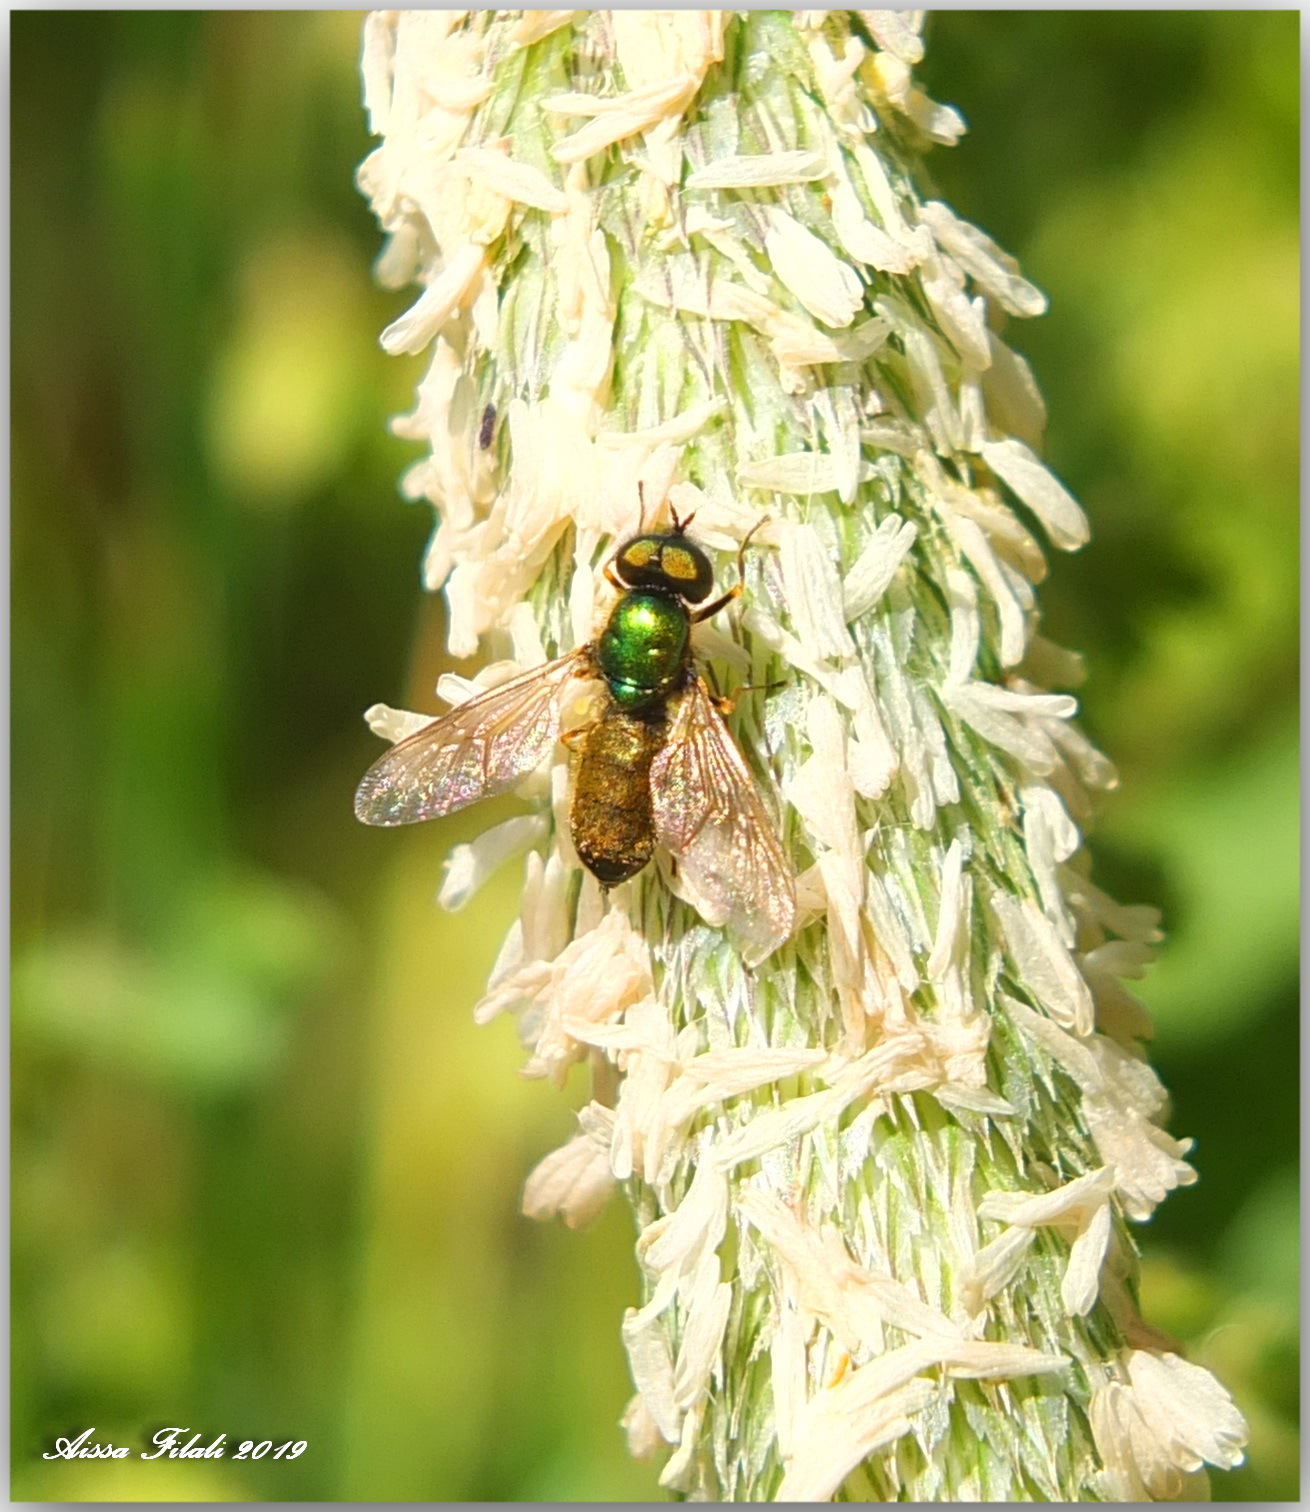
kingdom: Animalia
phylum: Arthropoda
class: Insecta
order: Diptera
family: Stratiomyidae
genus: Chloromyia
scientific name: Chloromyia formosa
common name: Soldier fly
